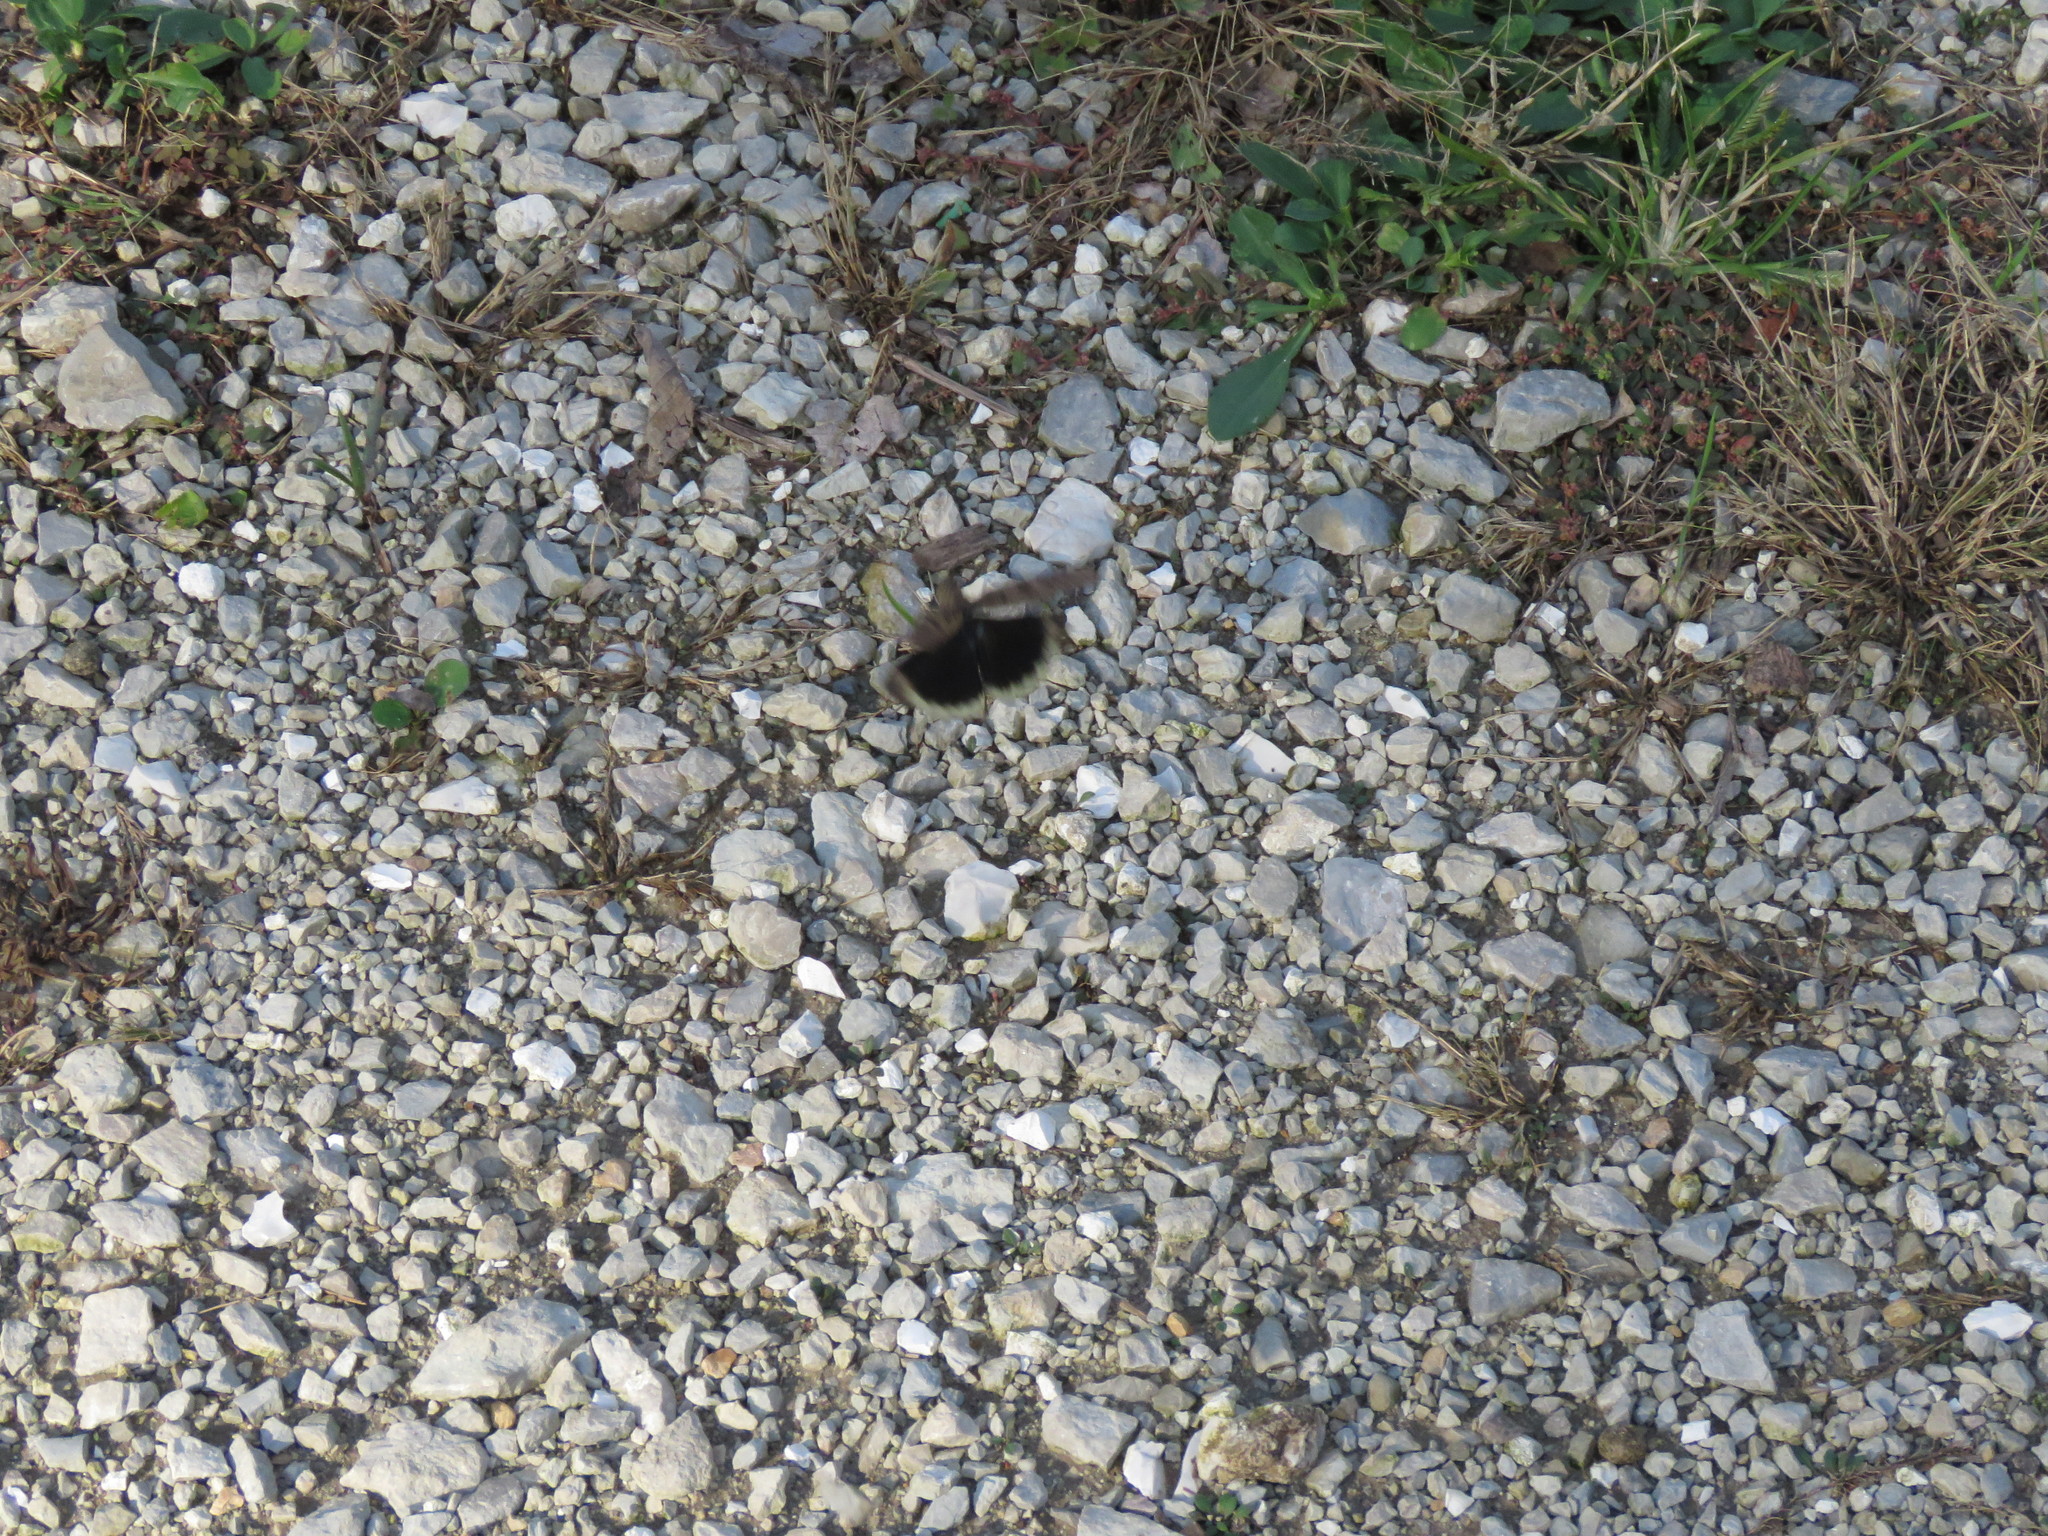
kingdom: Animalia
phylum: Arthropoda
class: Insecta
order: Orthoptera
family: Acrididae
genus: Dissosteira
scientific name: Dissosteira carolina
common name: Carolina grasshopper
